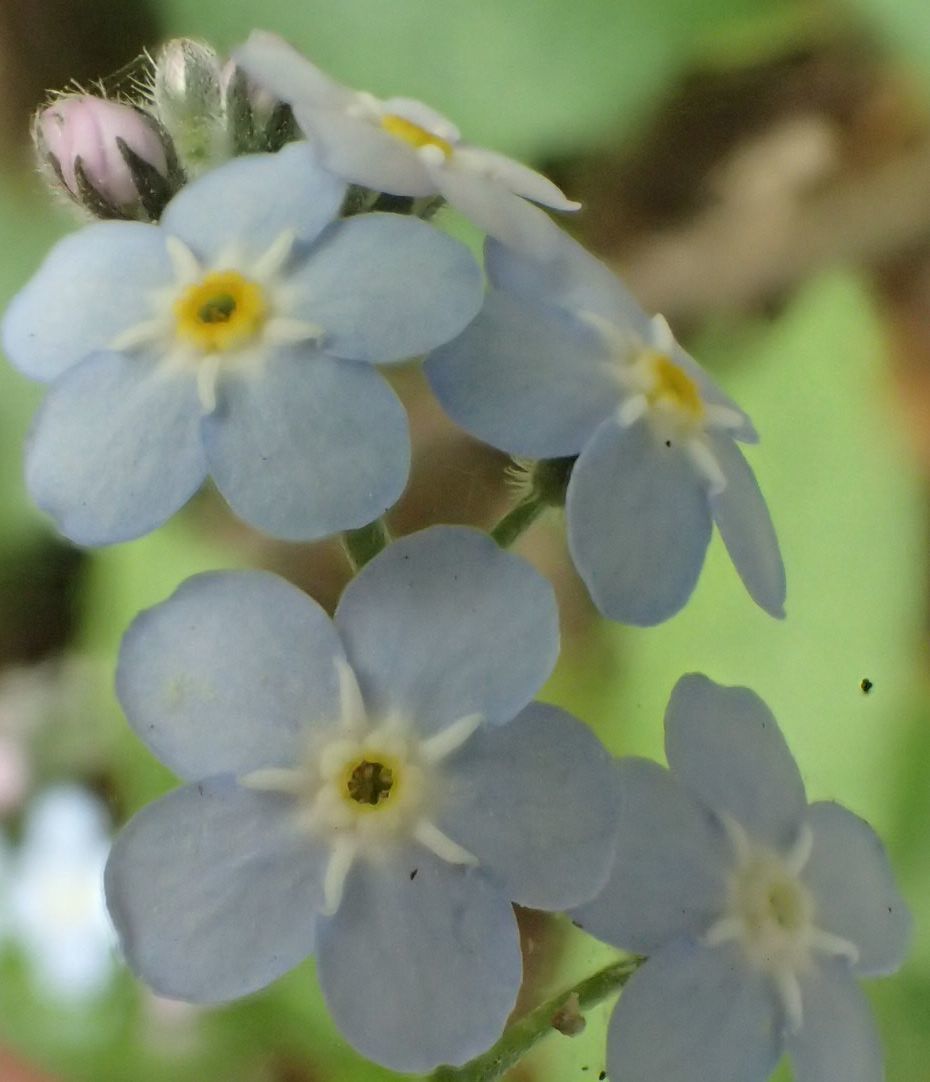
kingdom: Plantae
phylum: Tracheophyta
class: Magnoliopsida
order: Boraginales
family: Boraginaceae
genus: Myosotis
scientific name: Myosotis sylvatica
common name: Wood forget-me-not
